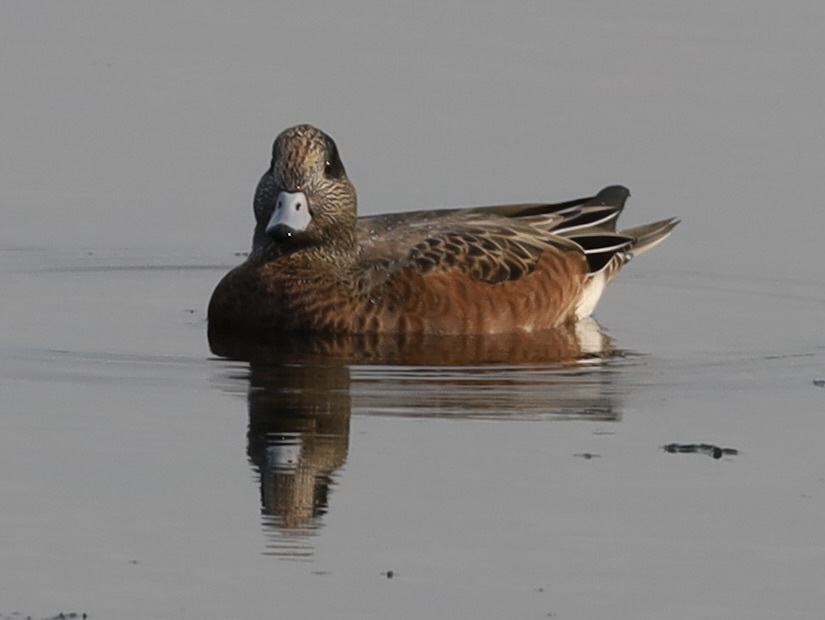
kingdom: Animalia
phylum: Chordata
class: Aves
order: Anseriformes
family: Anatidae
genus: Mareca
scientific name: Mareca americana
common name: American wigeon
